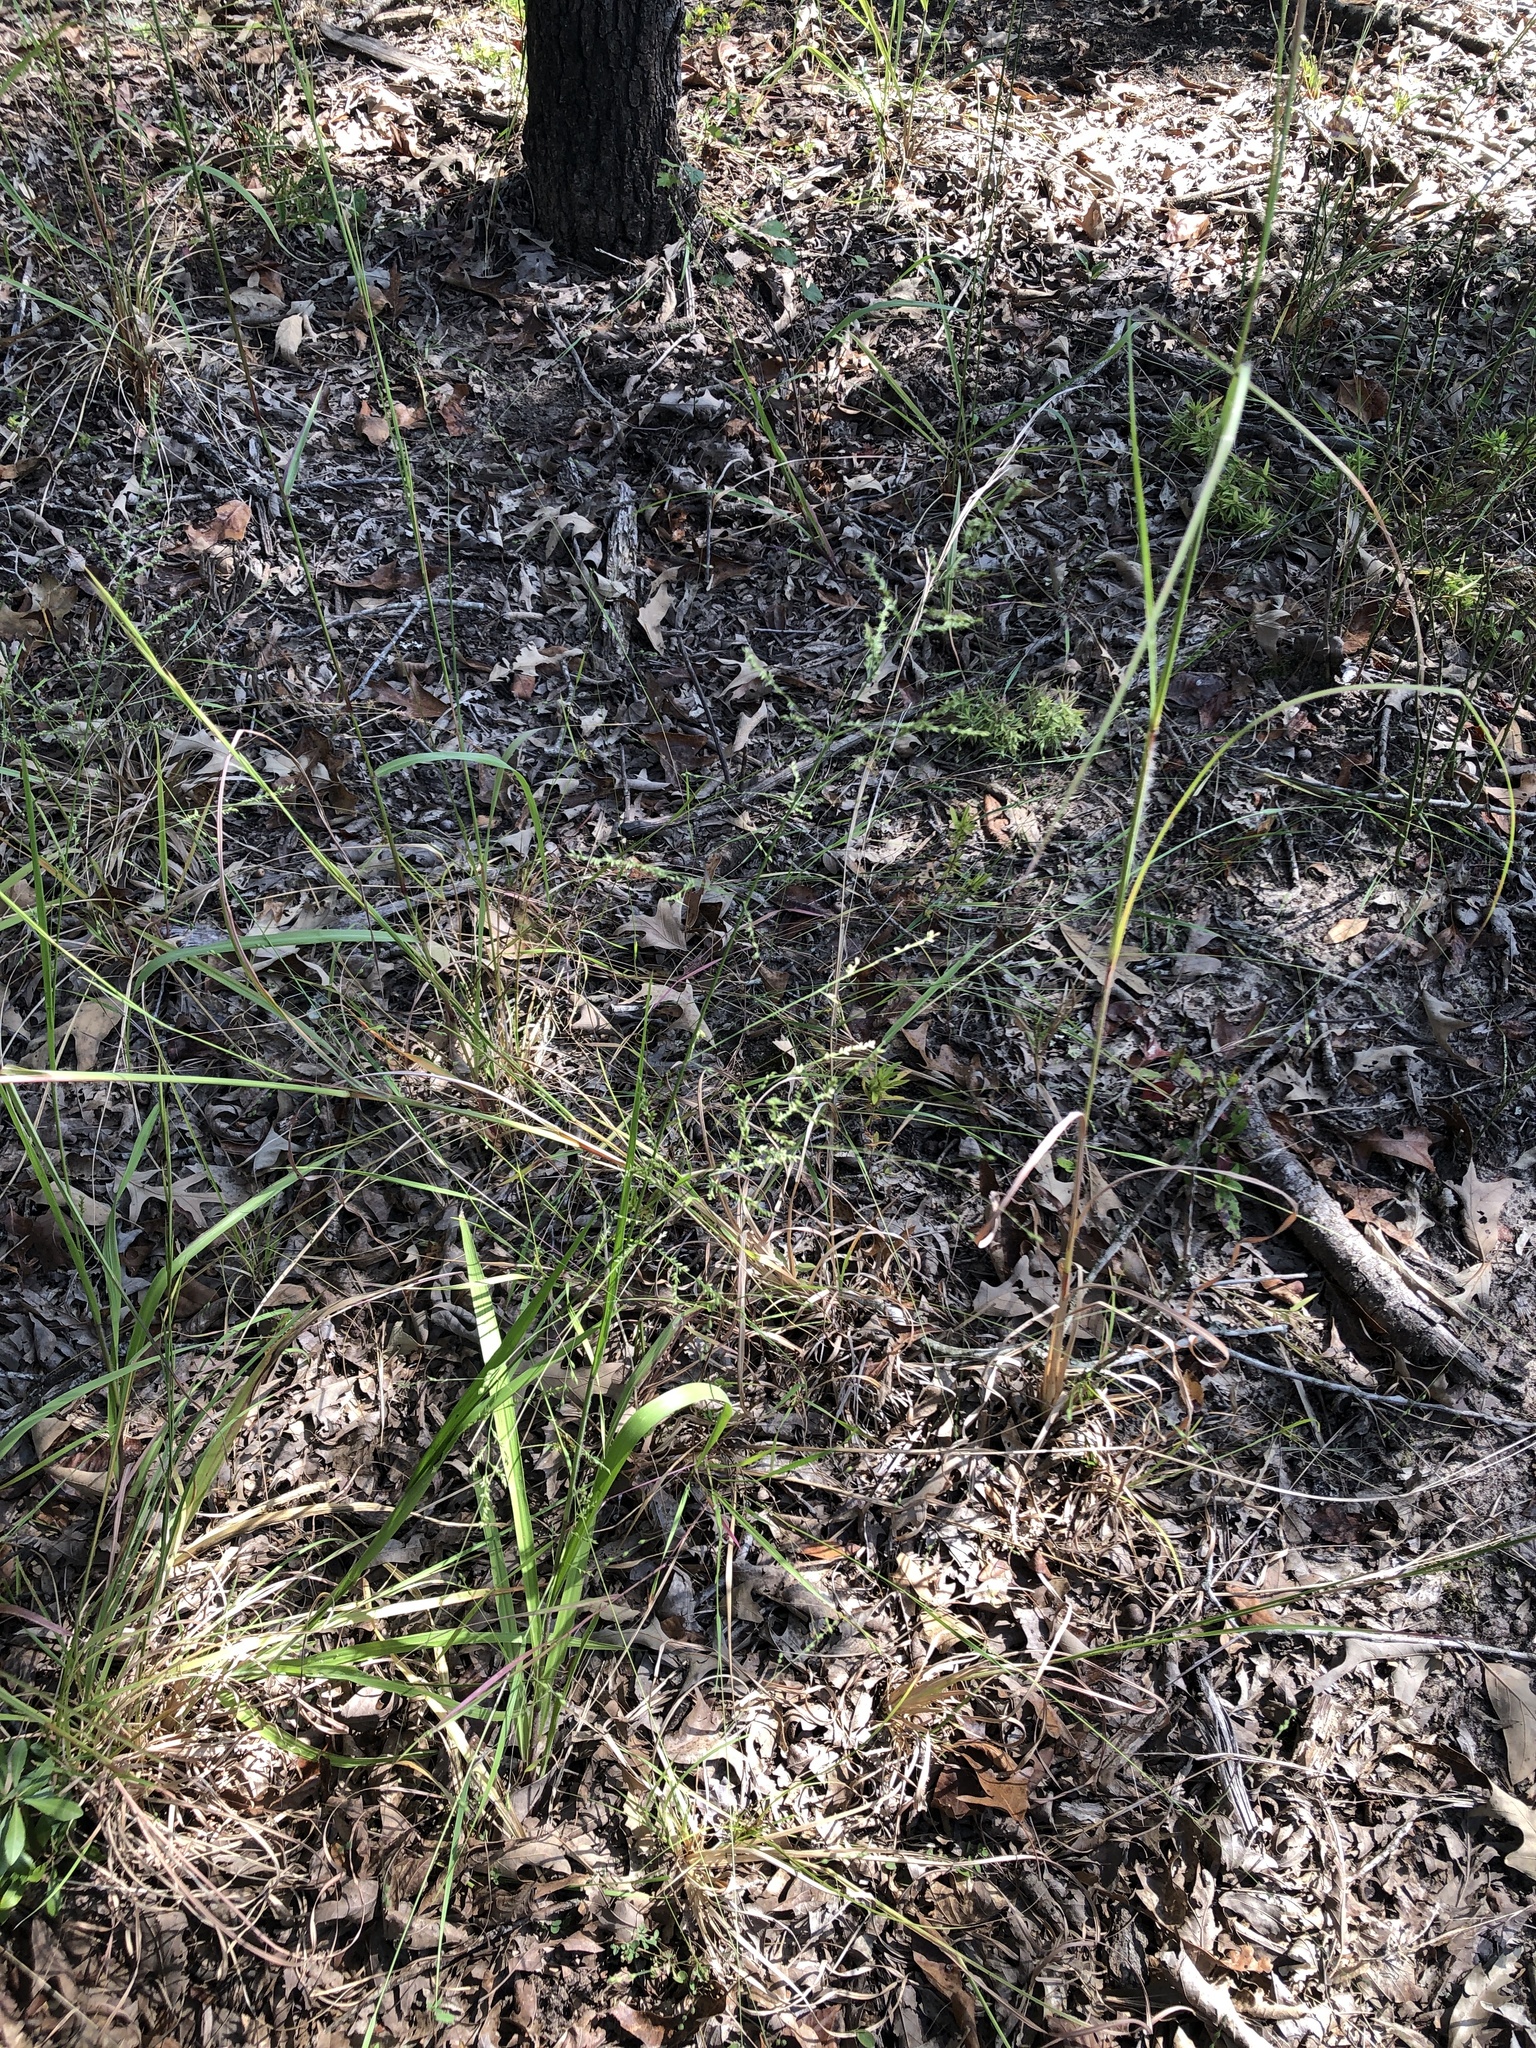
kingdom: Plantae
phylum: Tracheophyta
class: Liliopsida
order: Poales
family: Poaceae
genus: Coleataenia
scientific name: Coleataenia anceps
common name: Beaked panic grass
